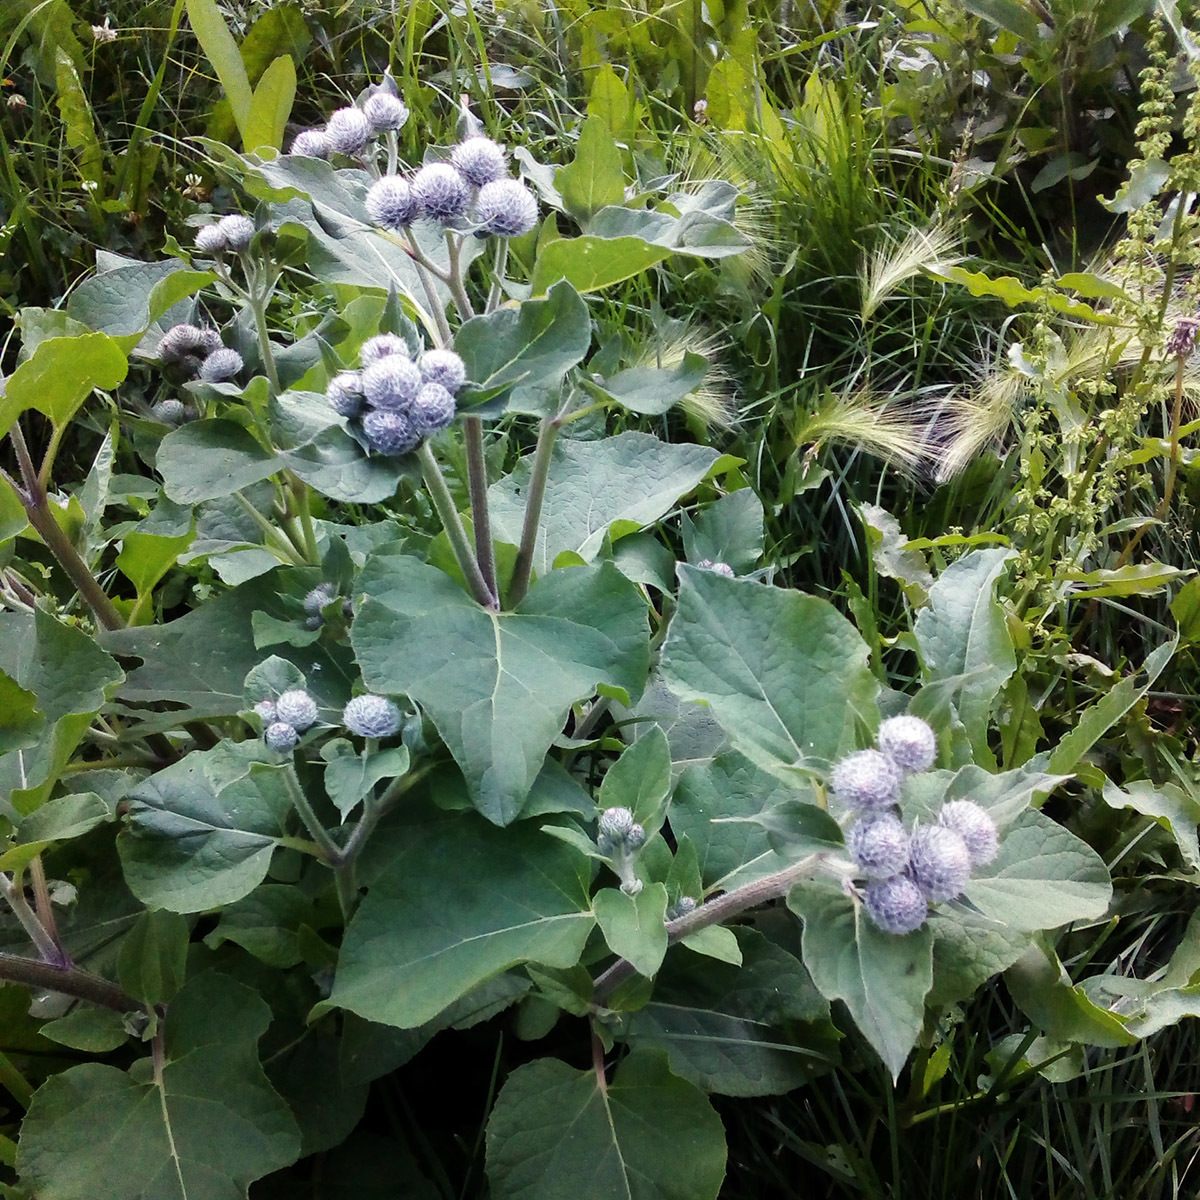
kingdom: Plantae
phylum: Tracheophyta
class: Magnoliopsida
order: Asterales
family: Asteraceae
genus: Arctium
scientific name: Arctium tomentosum
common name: Woolly burdock
